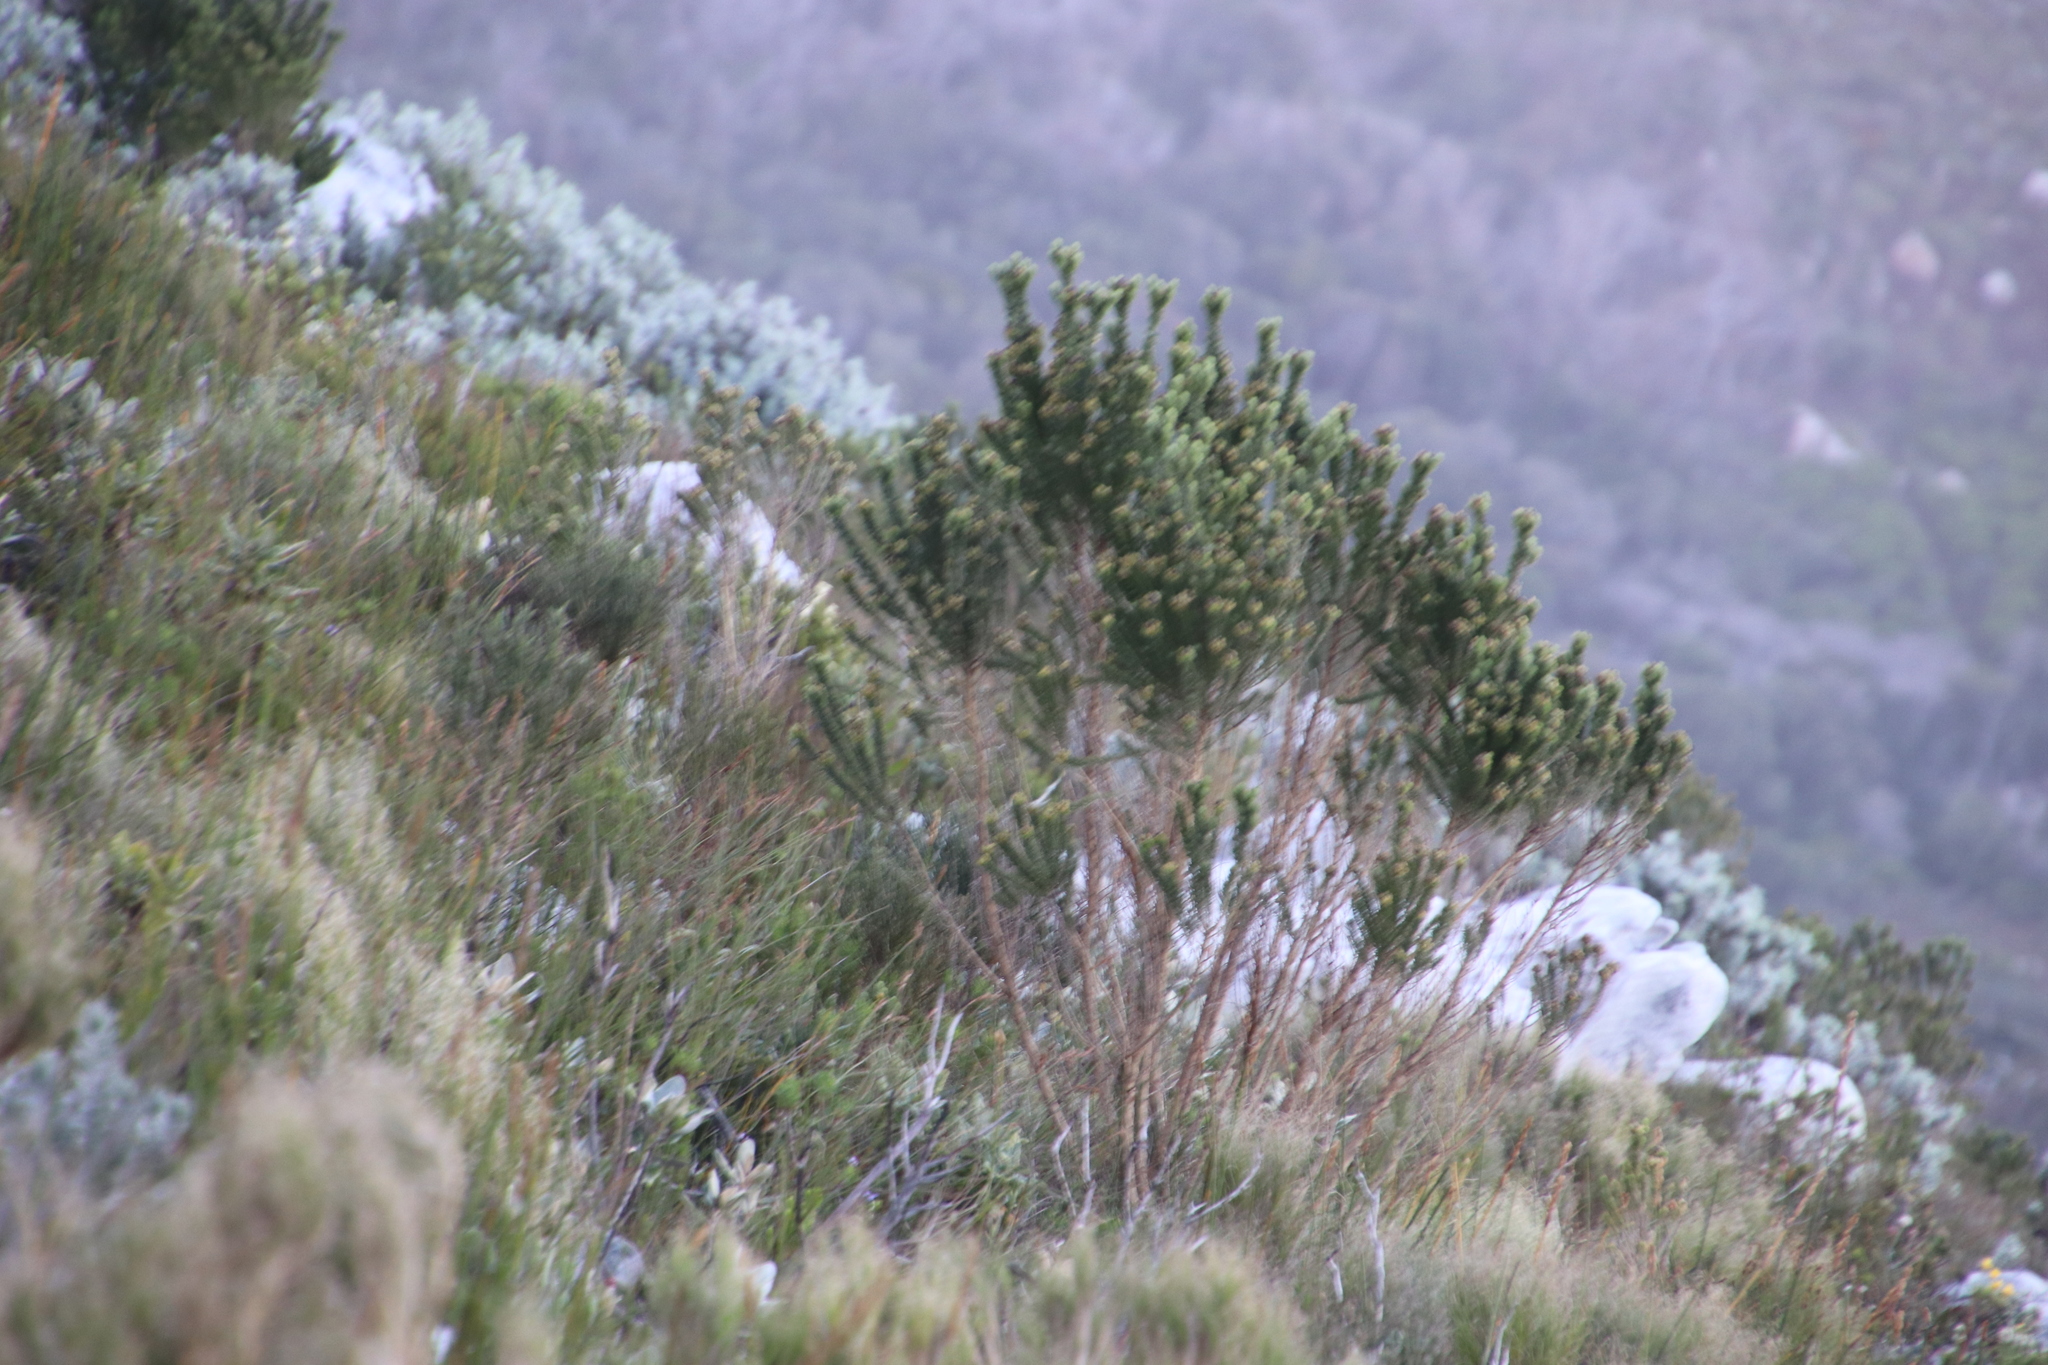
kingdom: Plantae
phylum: Tracheophyta
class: Magnoliopsida
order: Fabales
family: Fabaceae
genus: Aspalathus
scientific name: Aspalathus capitata
